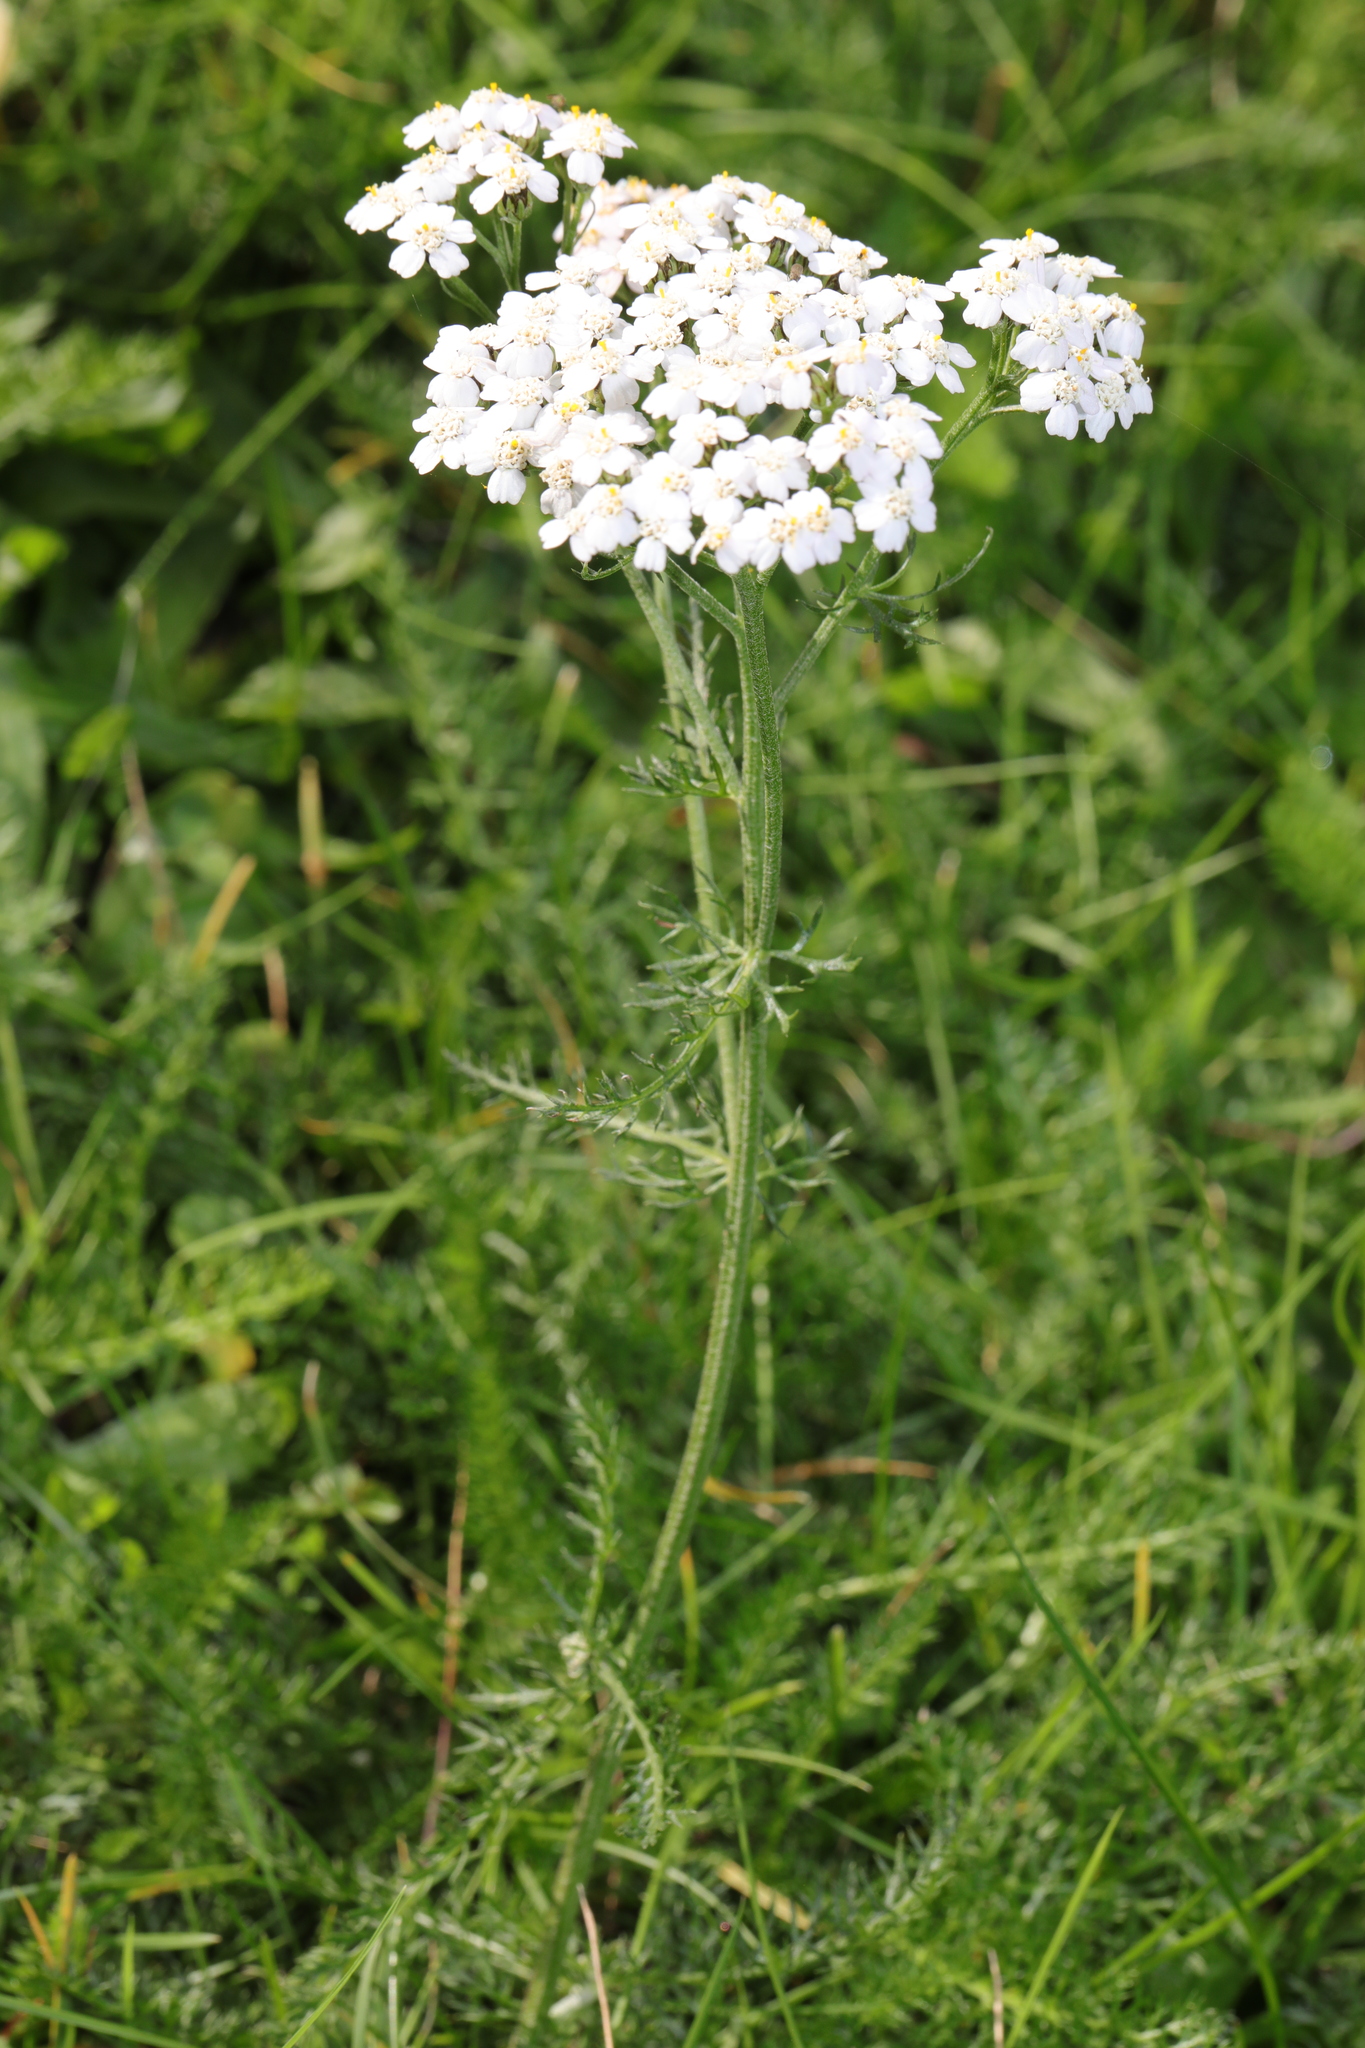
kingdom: Plantae
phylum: Tracheophyta
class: Magnoliopsida
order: Asterales
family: Asteraceae
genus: Achillea
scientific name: Achillea millefolium
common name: Yarrow
